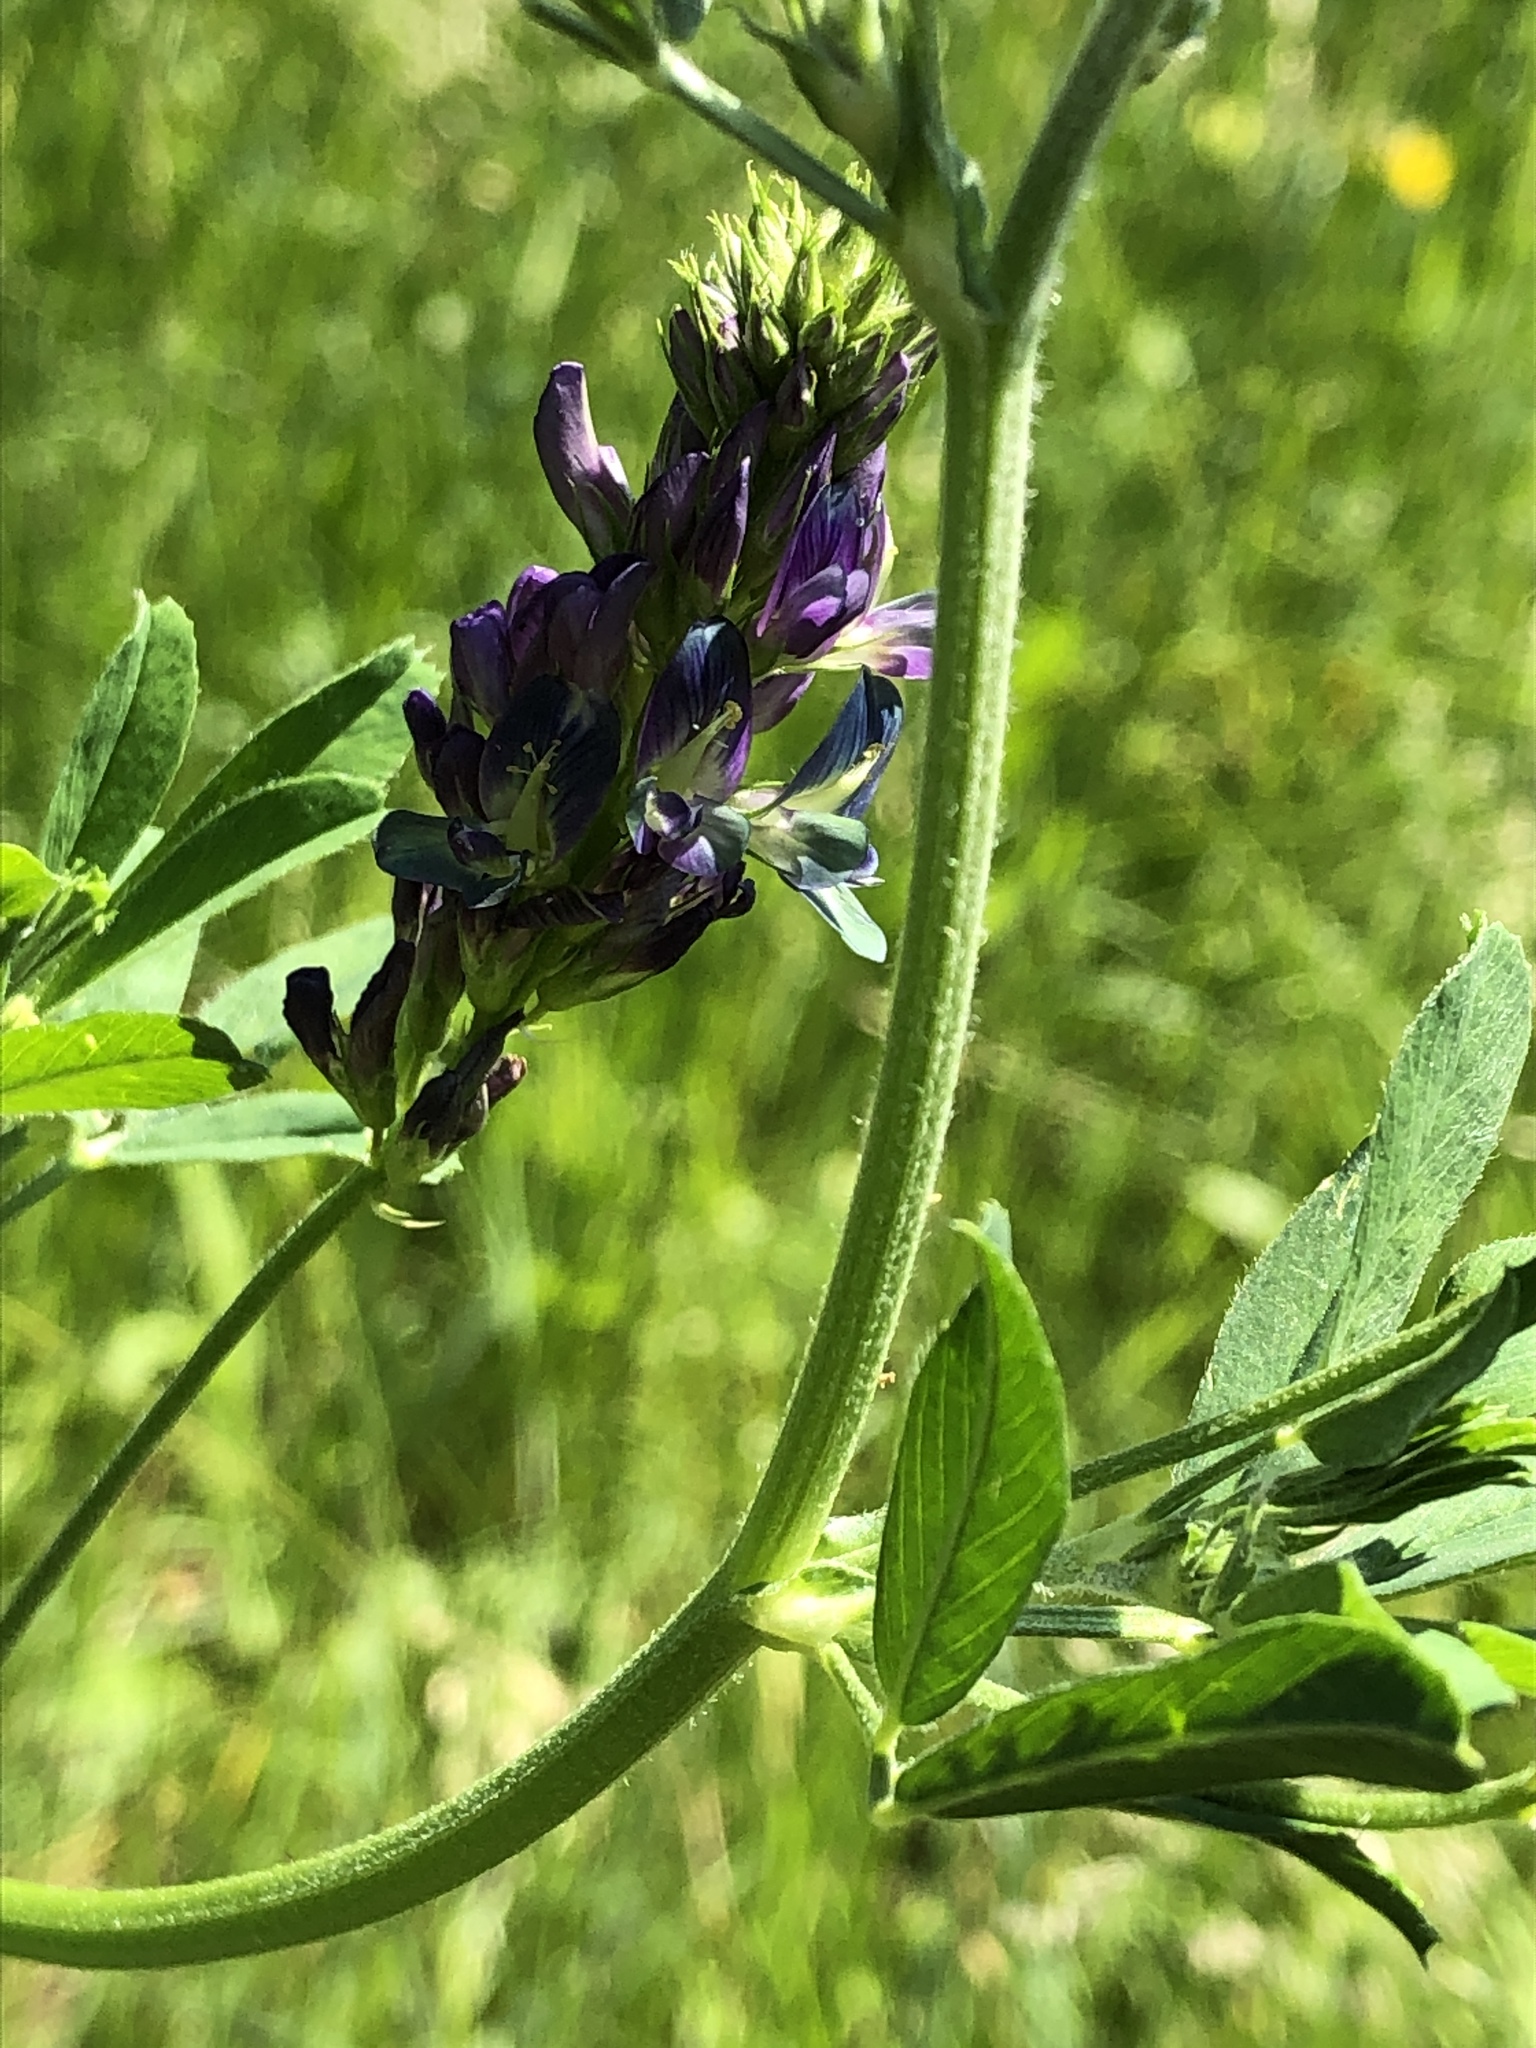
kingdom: Plantae
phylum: Tracheophyta
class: Magnoliopsida
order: Fabales
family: Fabaceae
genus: Medicago
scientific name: Medicago sativa
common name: Alfalfa
